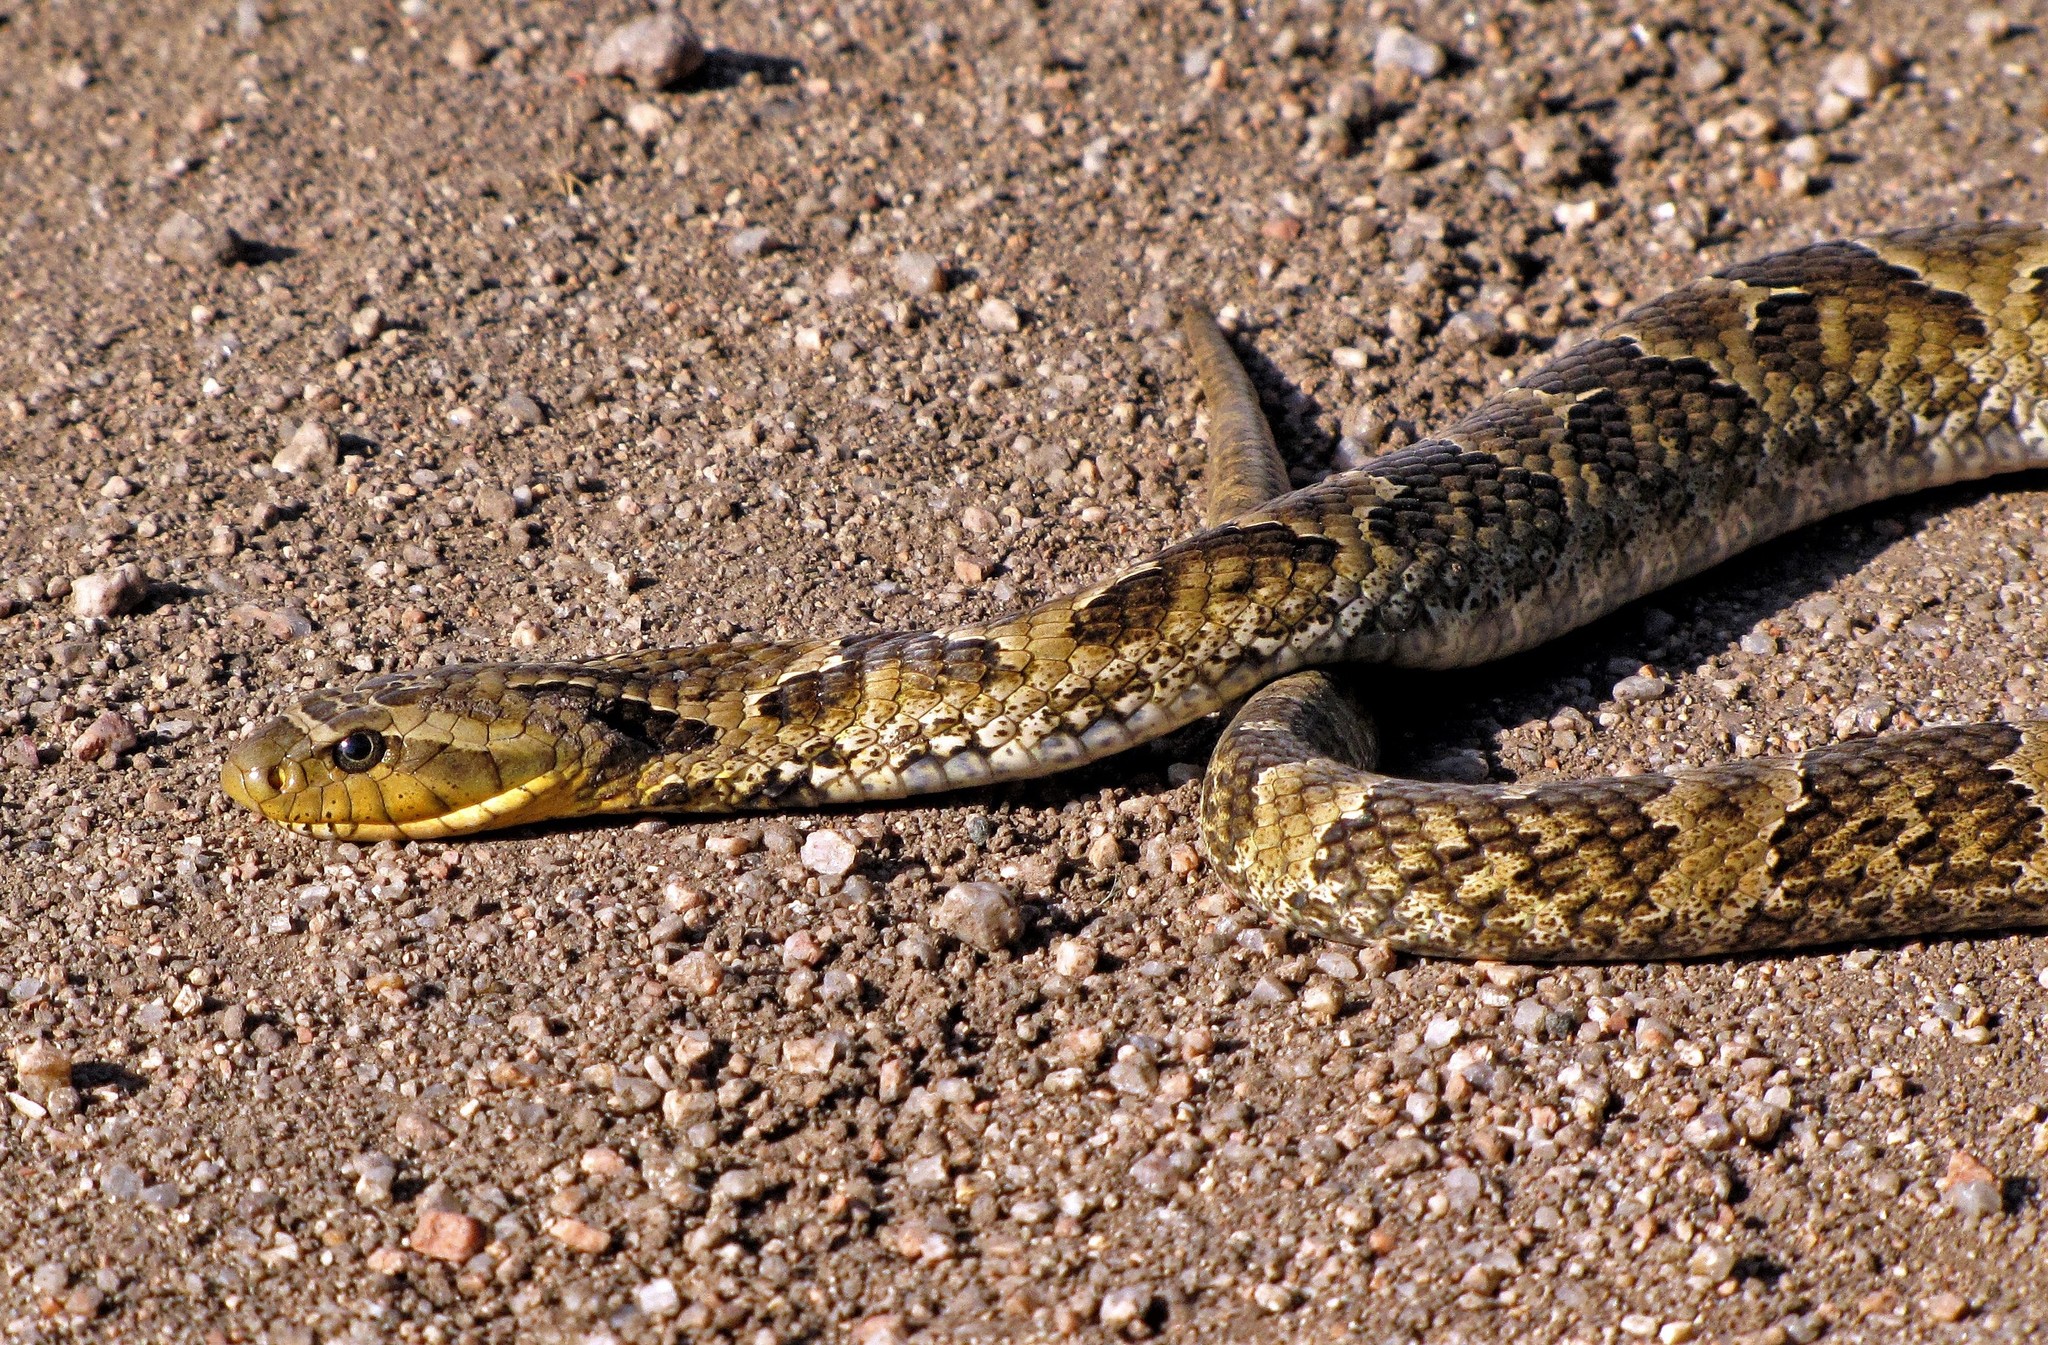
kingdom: Animalia
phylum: Chordata
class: Squamata
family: Colubridae
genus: Xenodon
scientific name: Xenodon merremii
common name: Wagler's snake
